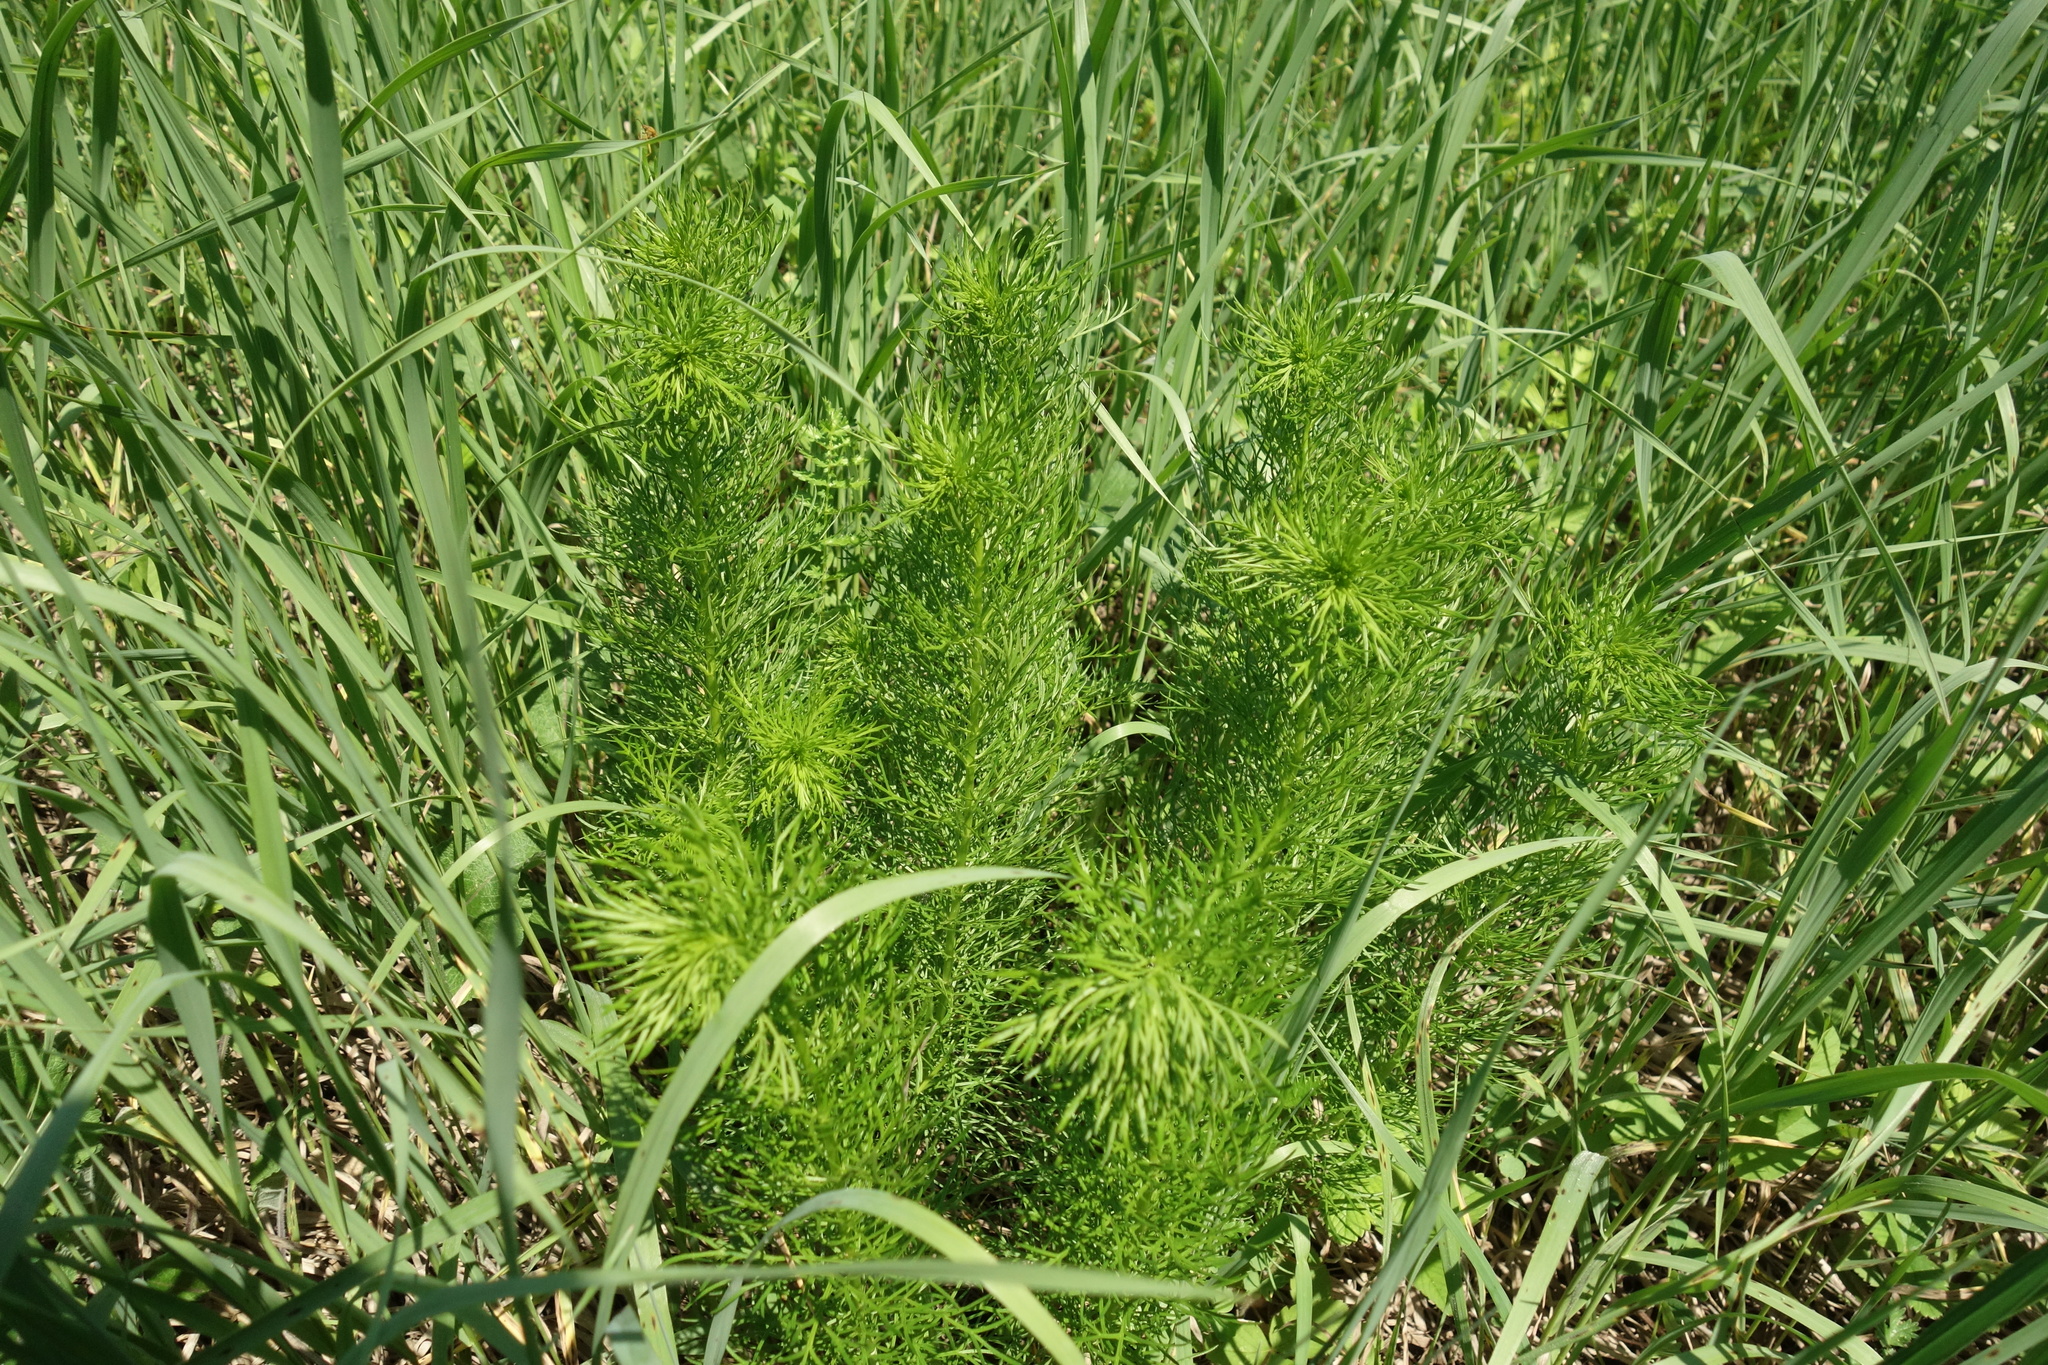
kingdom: Plantae
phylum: Tracheophyta
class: Magnoliopsida
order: Ranunculales
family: Ranunculaceae
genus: Adonis
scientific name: Adonis vernalis
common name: Yellow pheasants-eye
